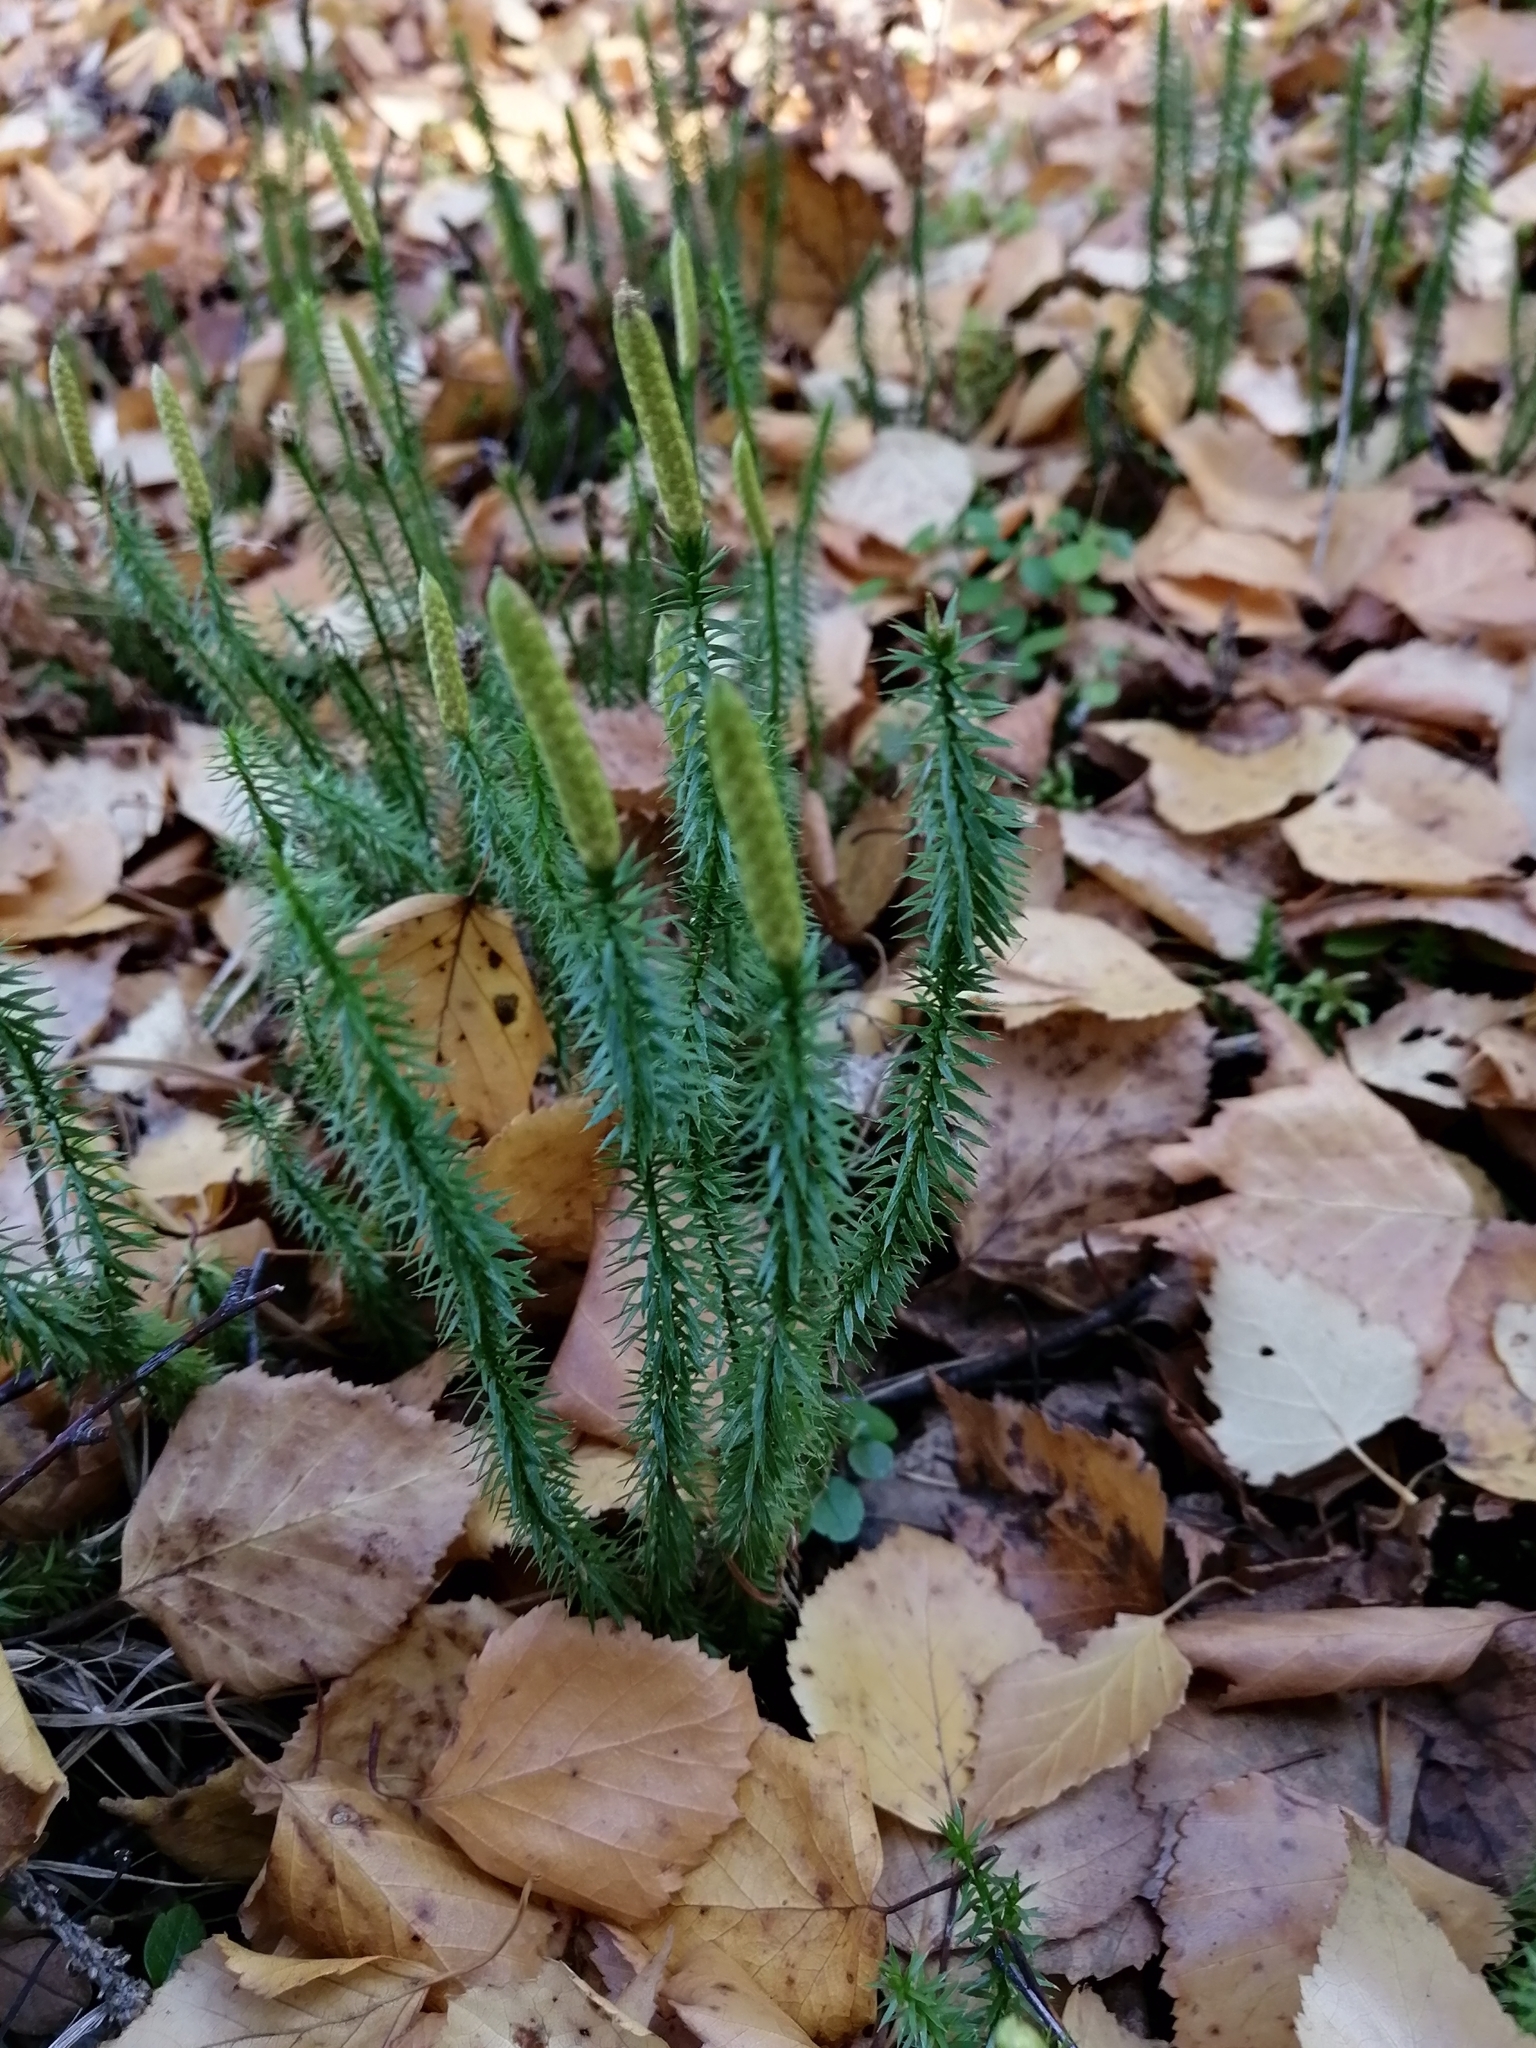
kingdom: Plantae
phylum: Tracheophyta
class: Lycopodiopsida
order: Lycopodiales
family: Lycopodiaceae
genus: Spinulum
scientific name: Spinulum annotinum
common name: Interrupted club-moss
